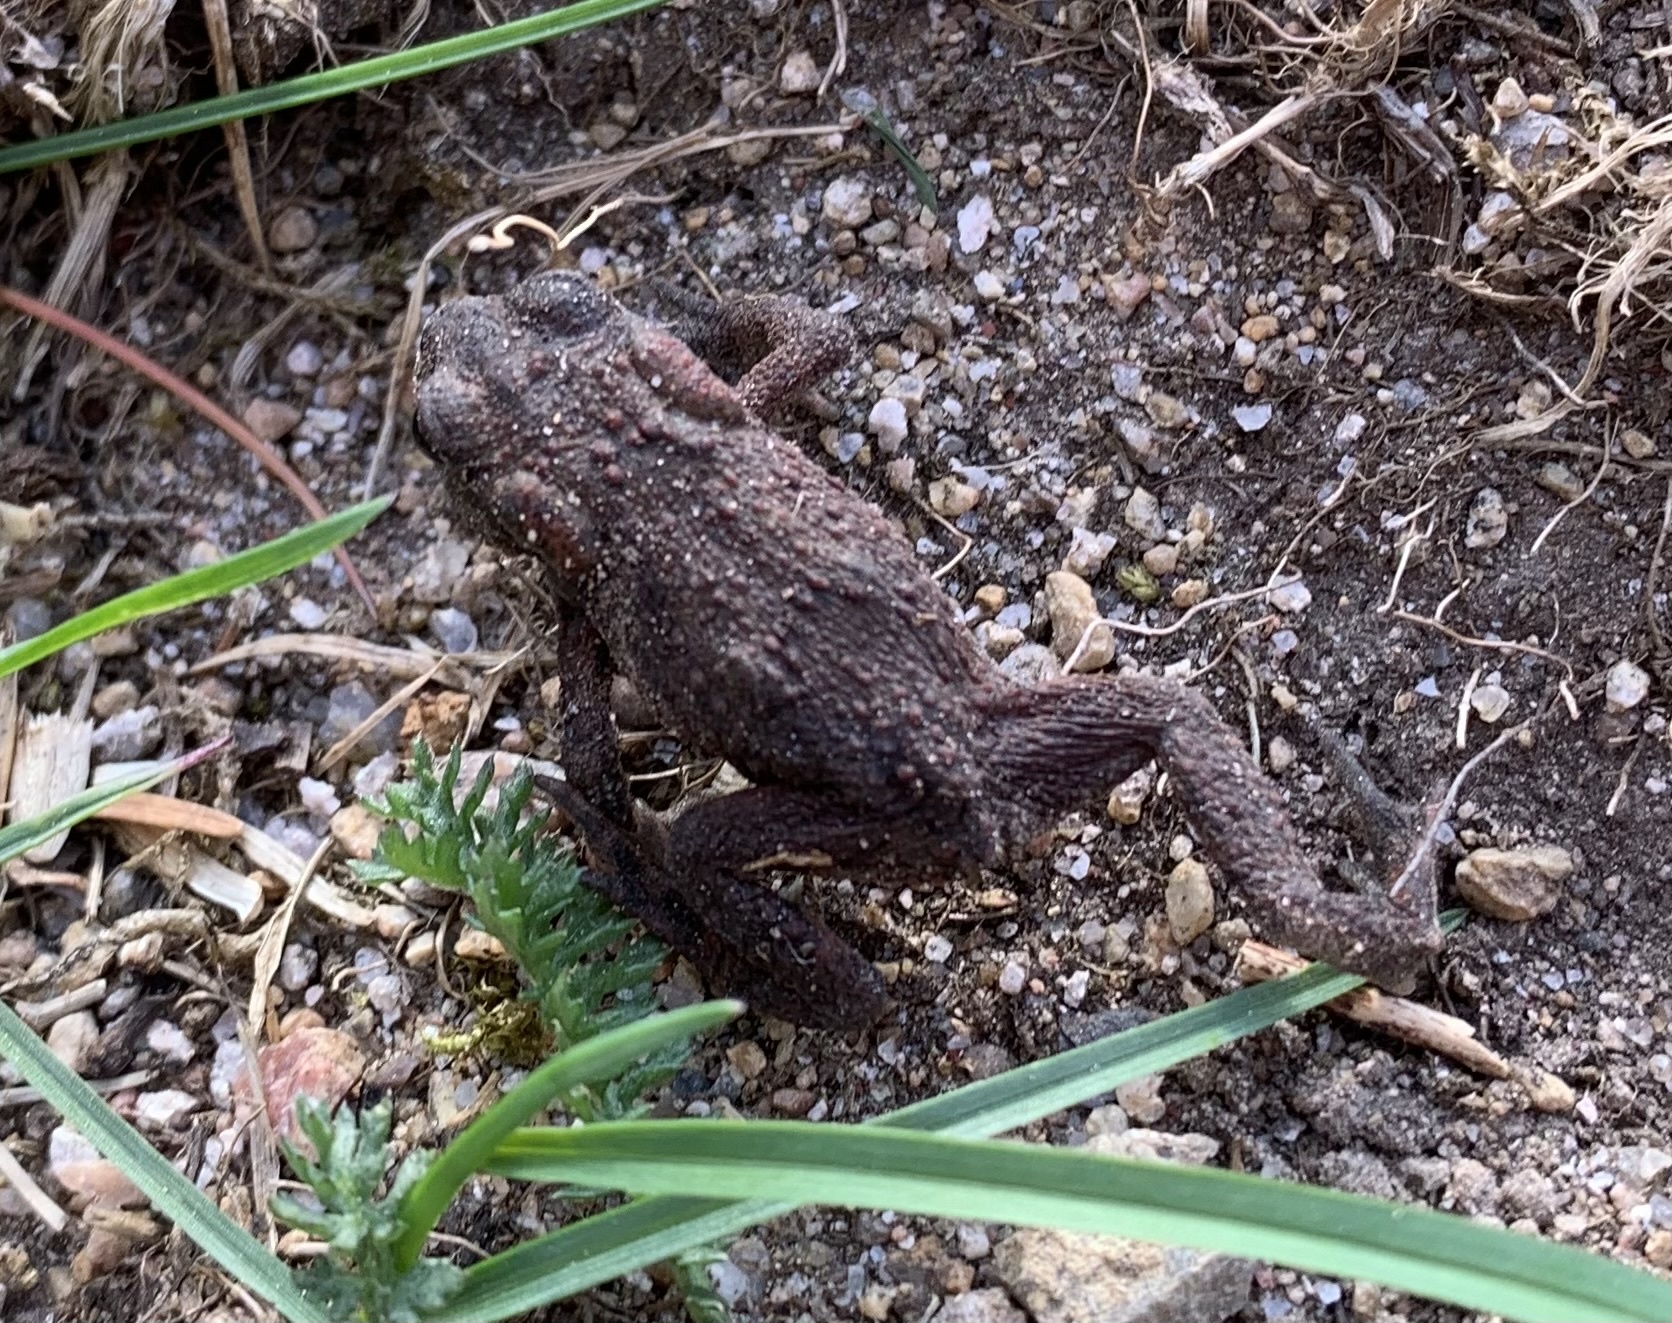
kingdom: Animalia
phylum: Chordata
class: Amphibia
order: Anura
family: Bufonidae
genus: Bufo
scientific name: Bufo bufo
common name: Common toad
